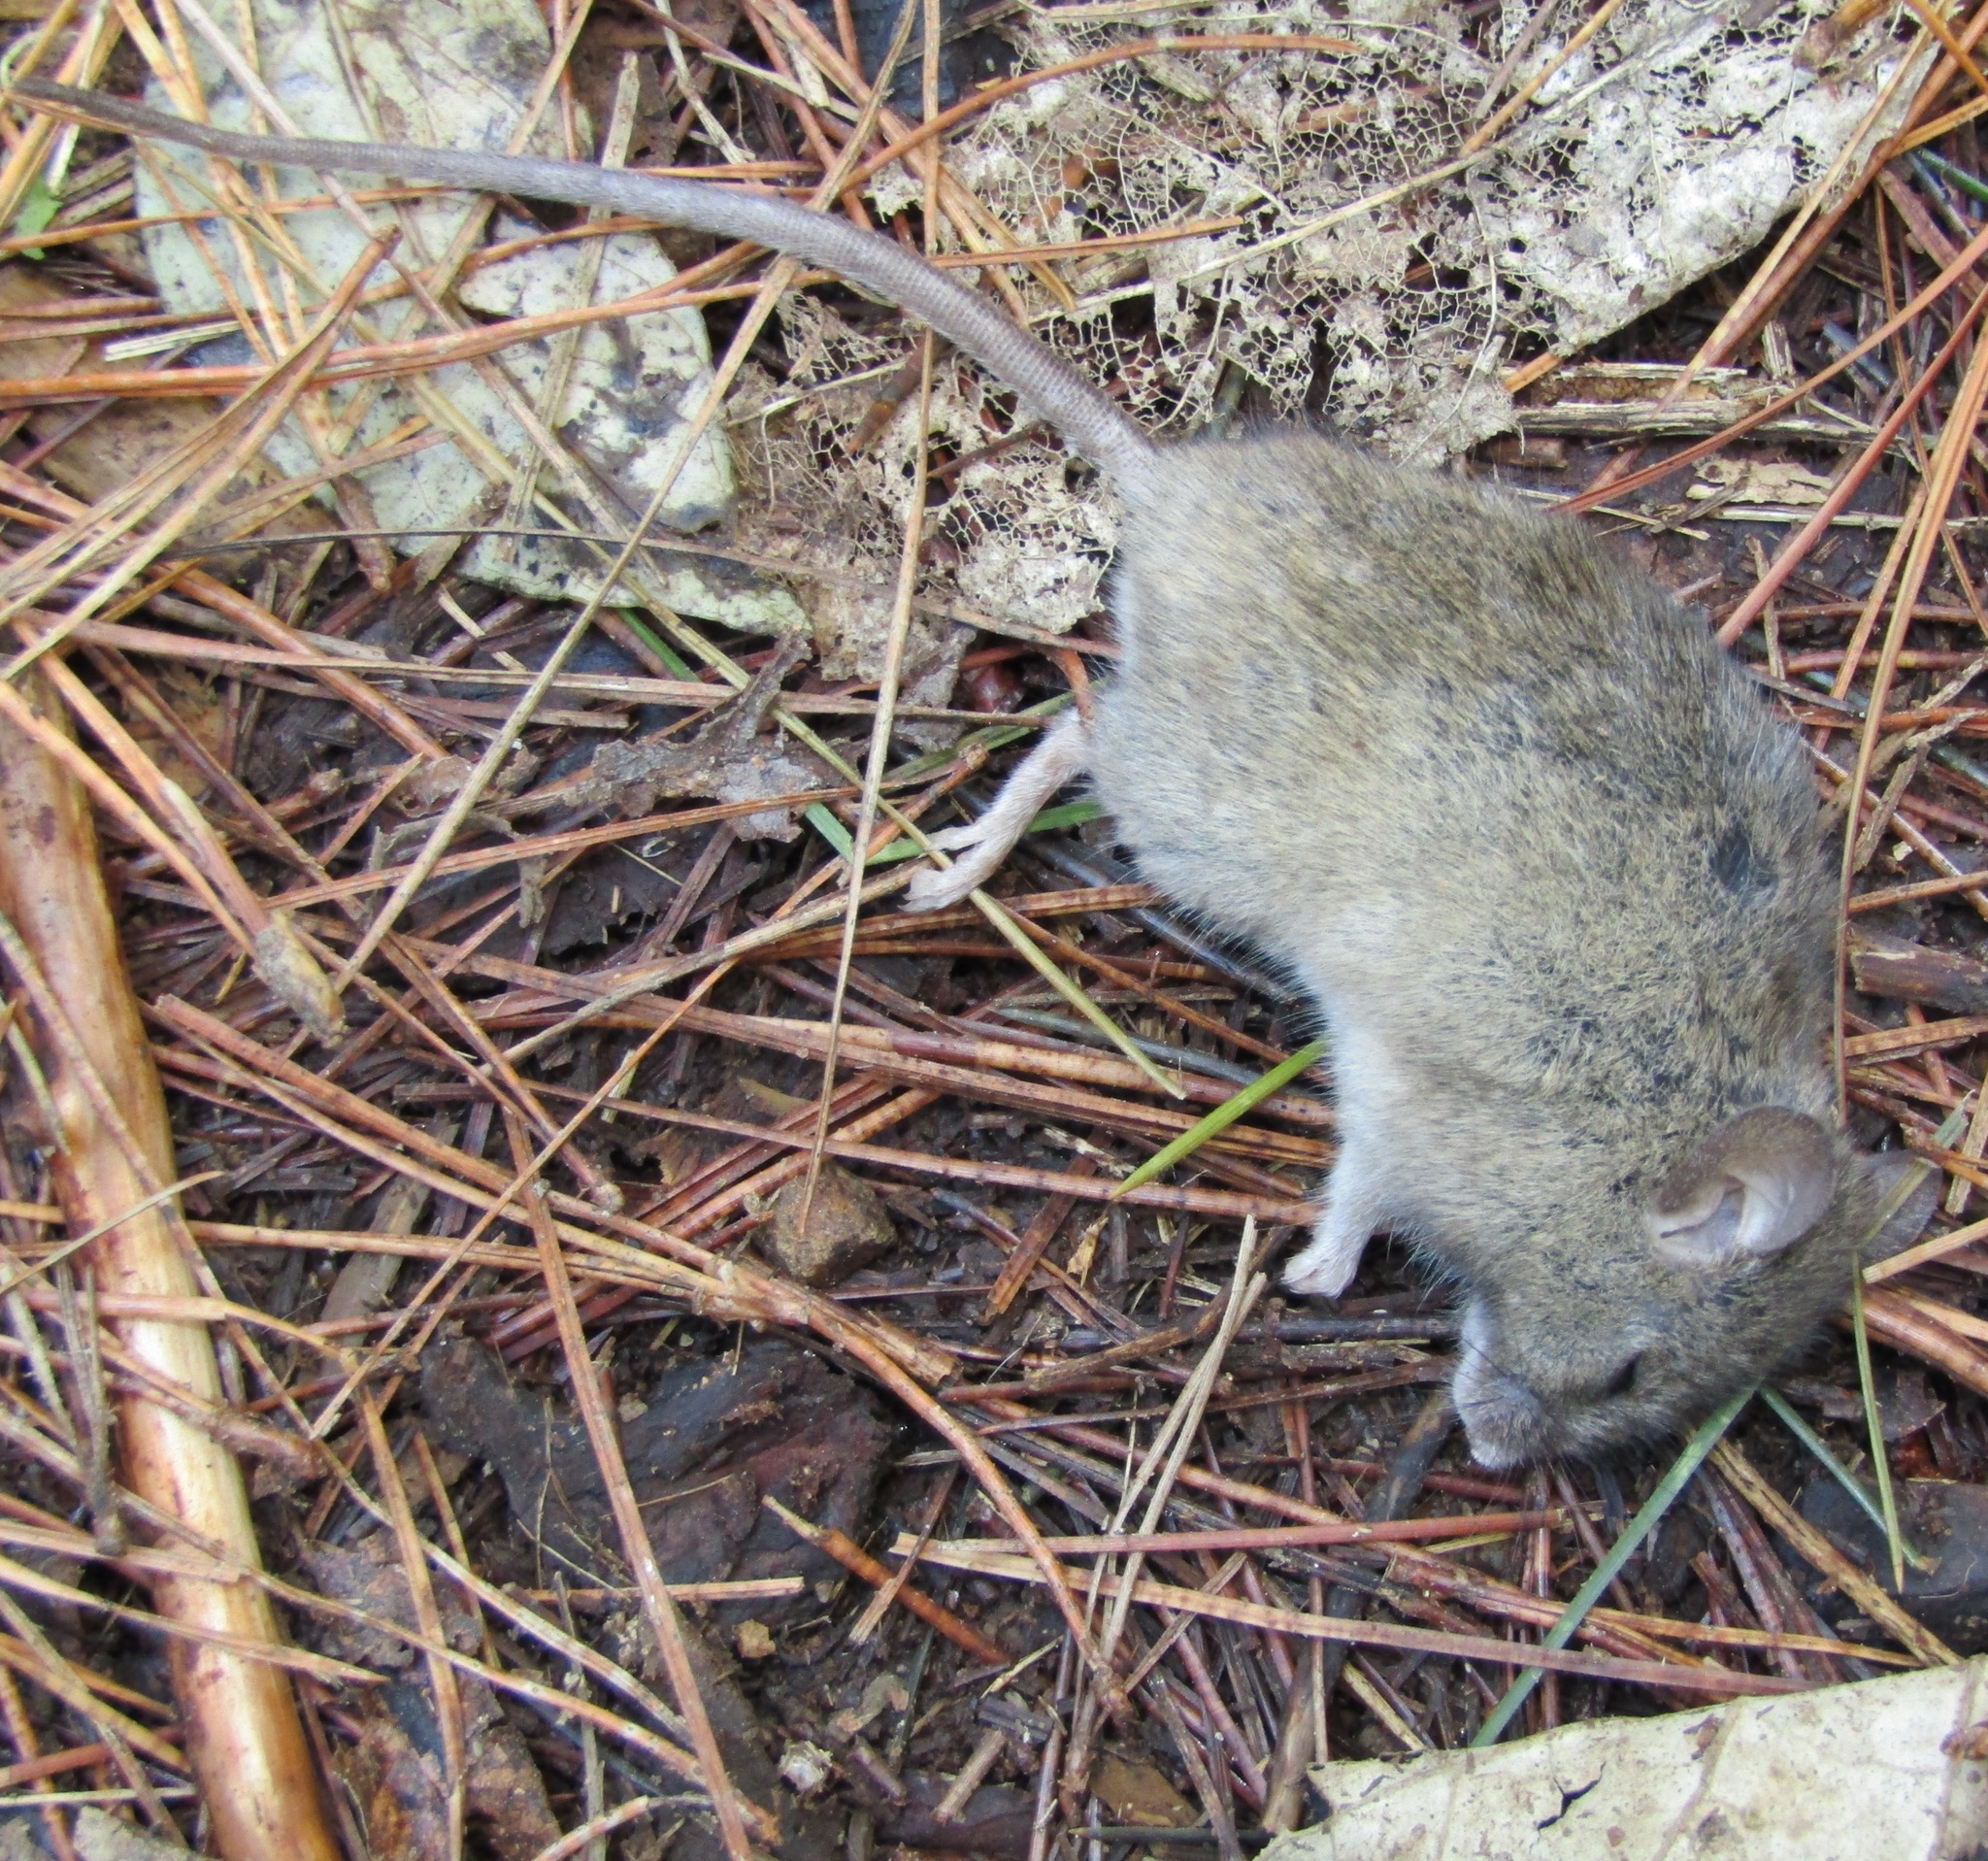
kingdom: Animalia
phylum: Chordata
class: Mammalia
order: Rodentia
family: Muridae
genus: Mus
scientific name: Mus musculus
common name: House mouse
